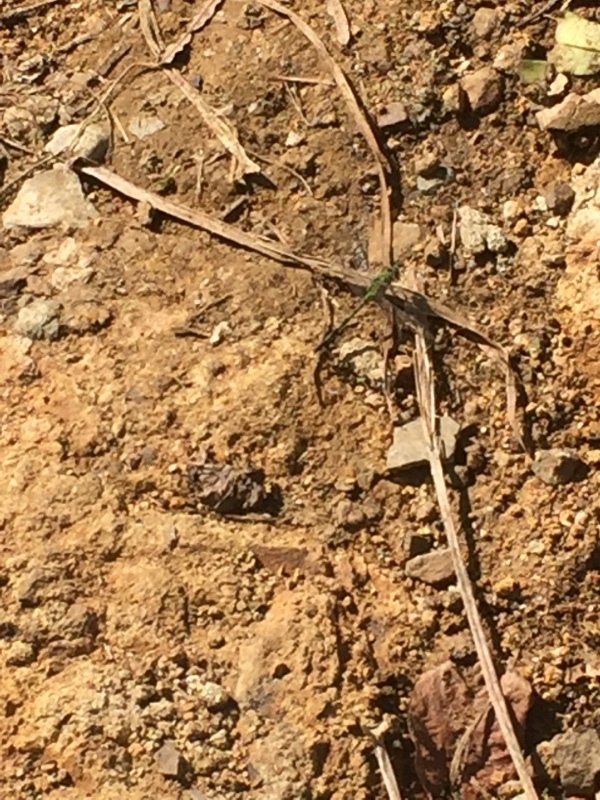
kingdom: Animalia
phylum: Arthropoda
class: Insecta
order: Odonata
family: Libellulidae
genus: Erythemis
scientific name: Erythemis vesiculosa
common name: Great pondhawk
